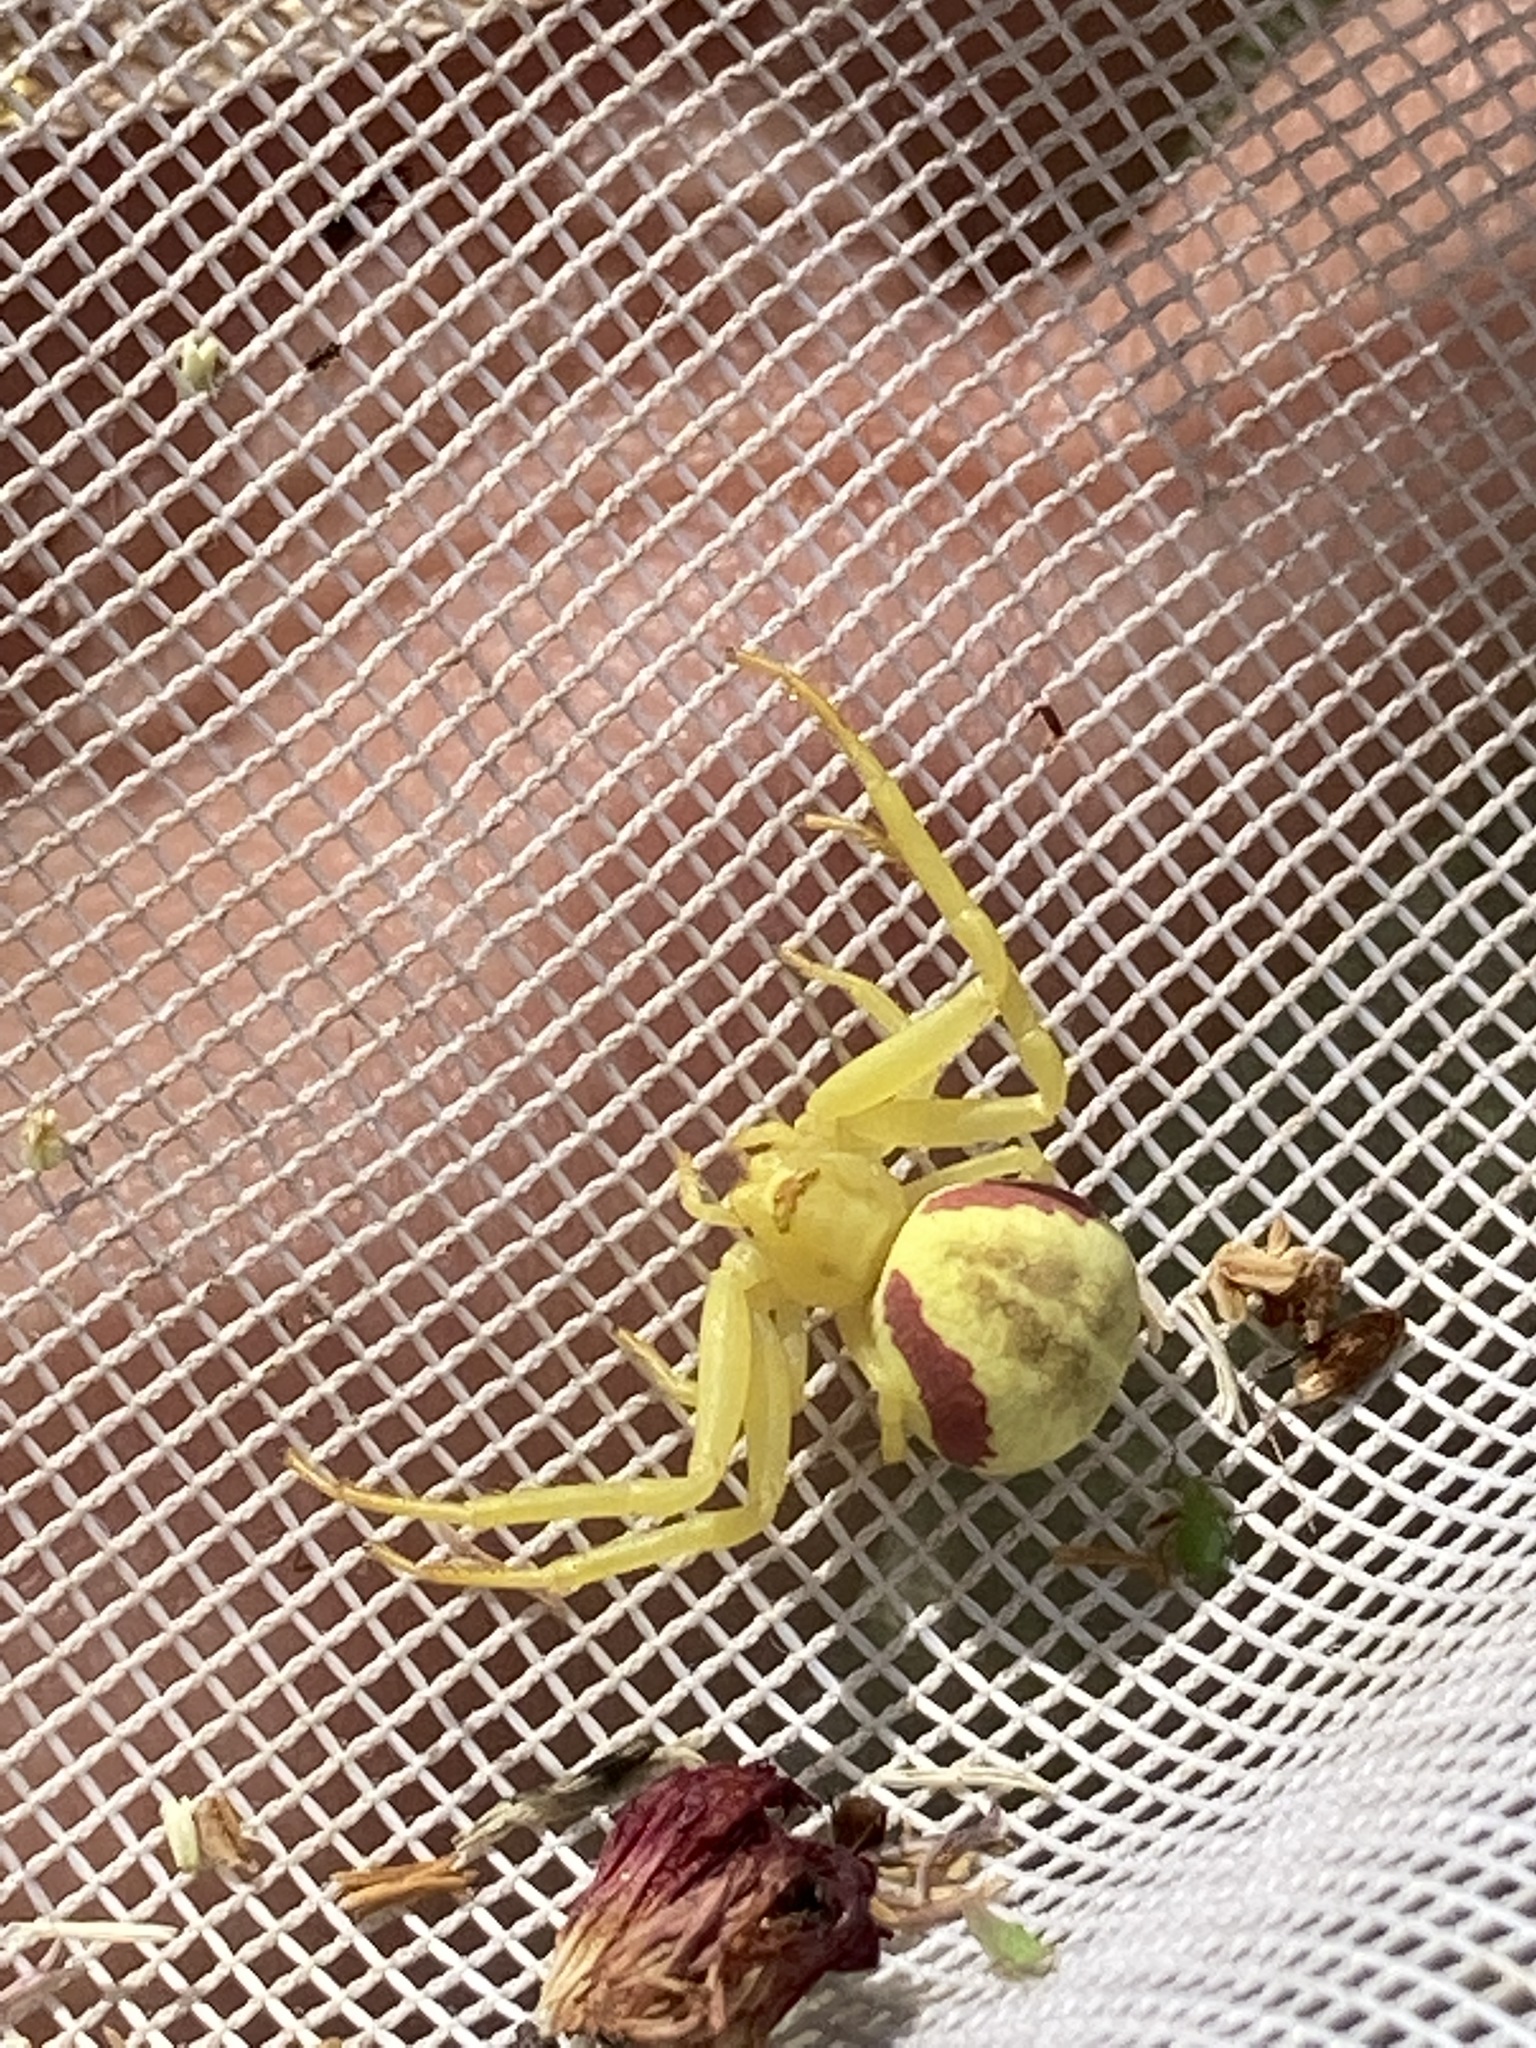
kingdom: Animalia
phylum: Arthropoda
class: Arachnida
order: Araneae
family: Thomisidae
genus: Misumena
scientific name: Misumena vatia
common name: Goldenrod crab spider
